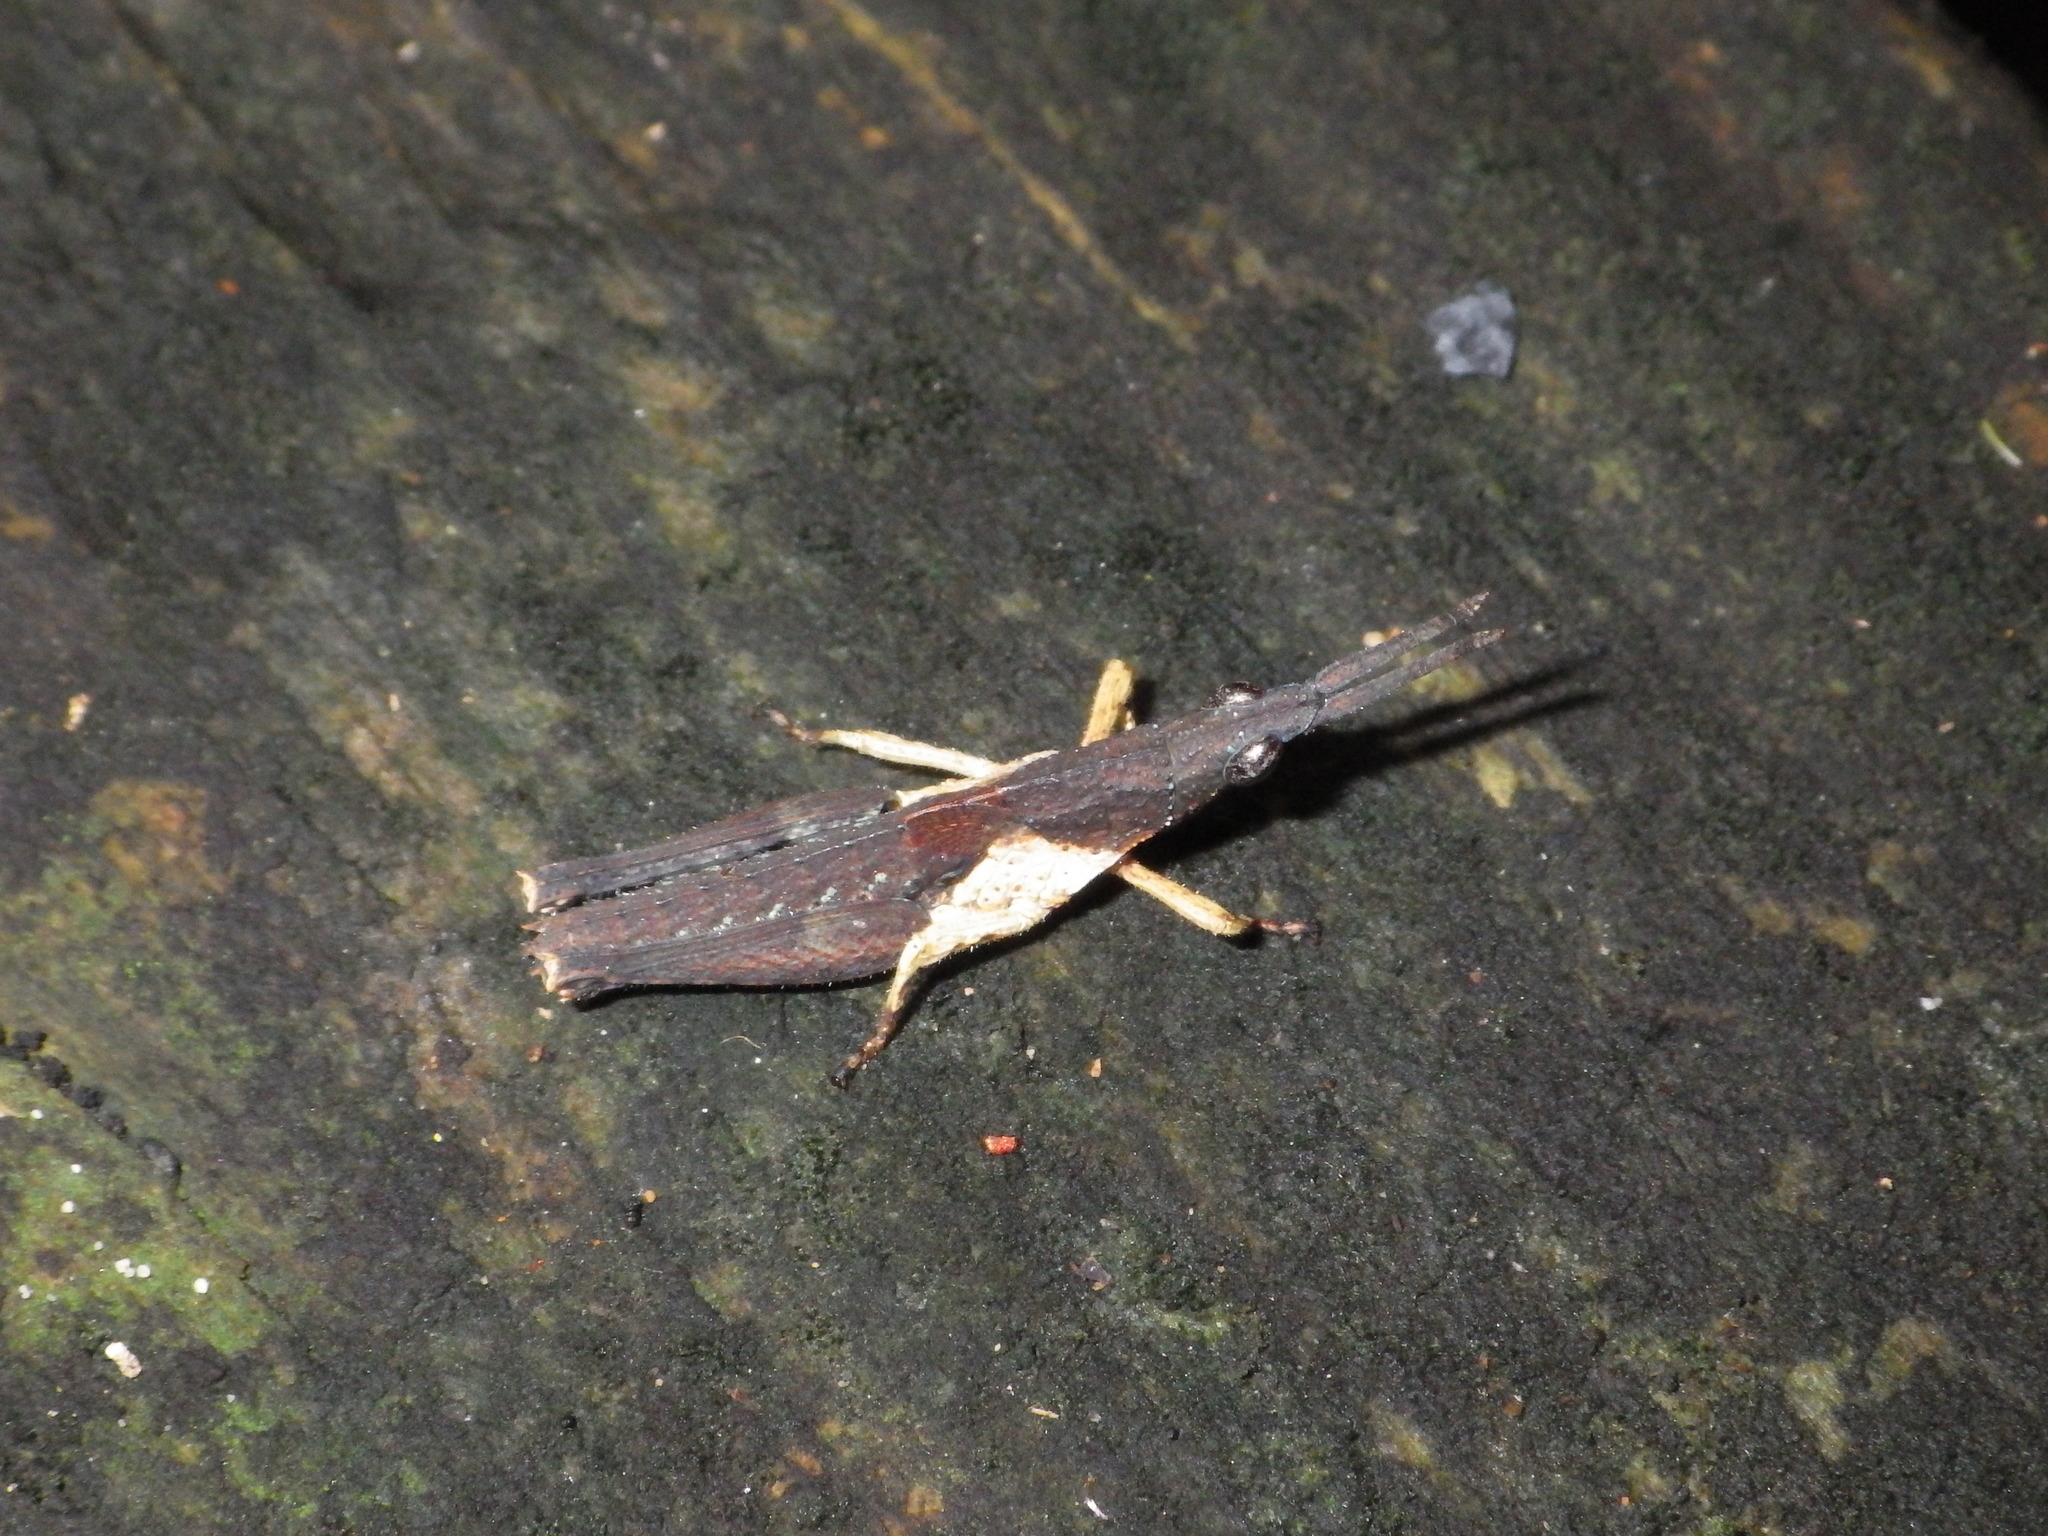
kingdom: Animalia
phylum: Arthropoda
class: Insecta
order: Orthoptera
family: Pyrgomorphidae
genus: Desmoptera
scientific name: Desmoptera truncatipennis
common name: Large forest pyrgomorph
